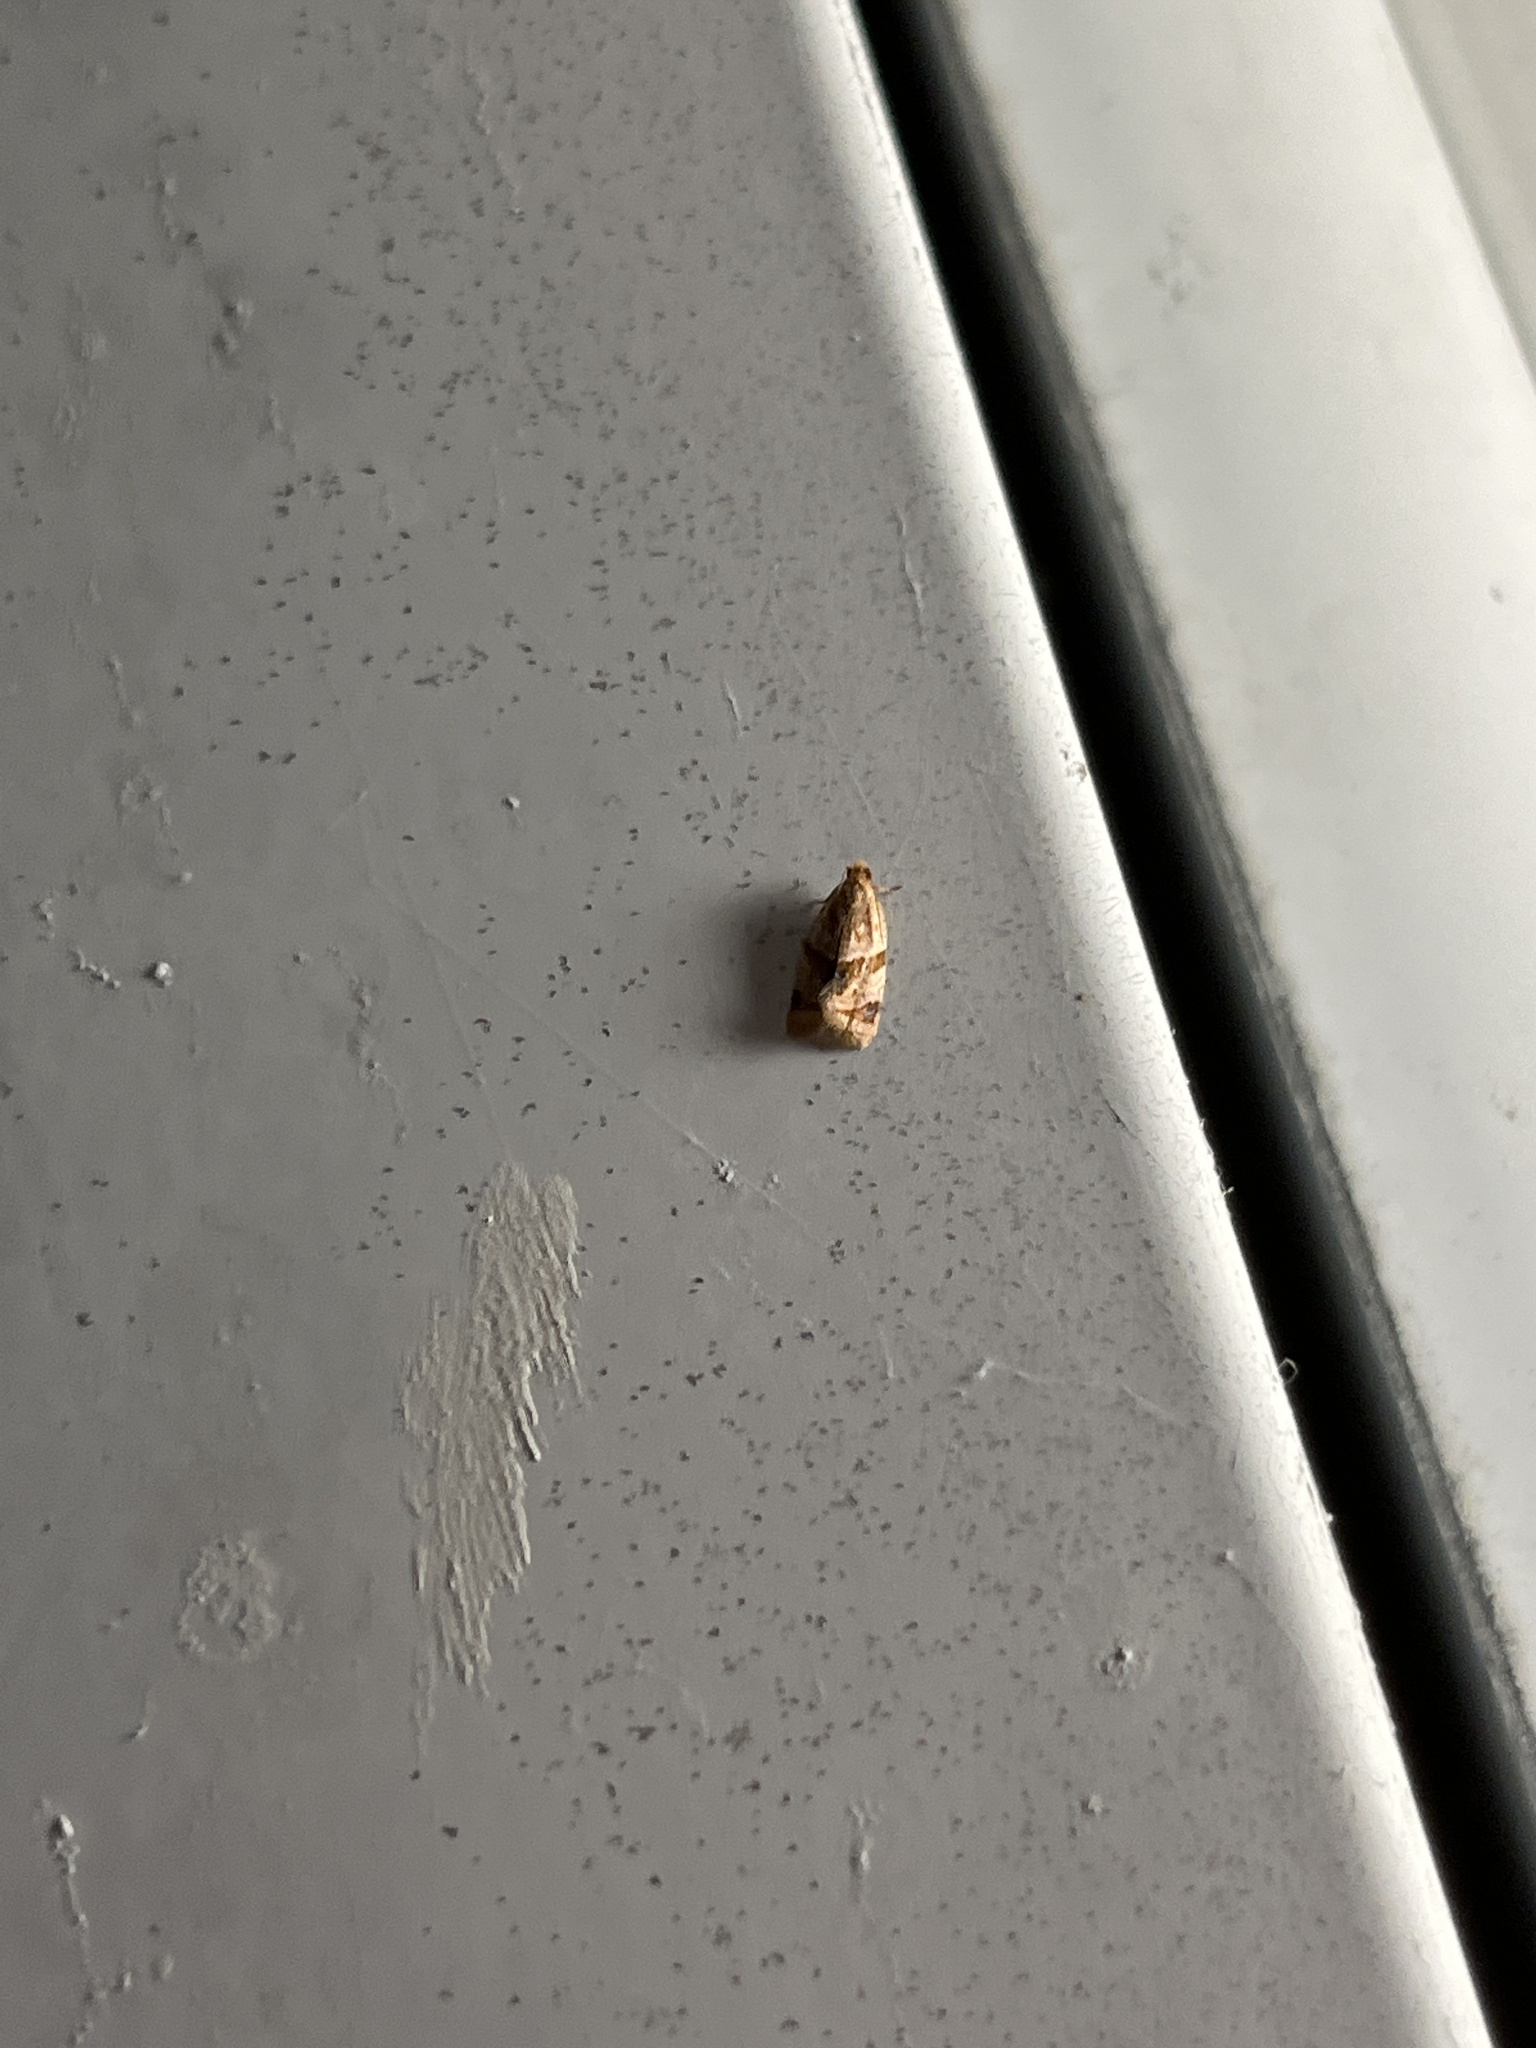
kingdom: Animalia
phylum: Arthropoda
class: Insecta
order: Lepidoptera
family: Tortricidae
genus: Clepsis
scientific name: Clepsis peritana
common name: Garden tortrix
